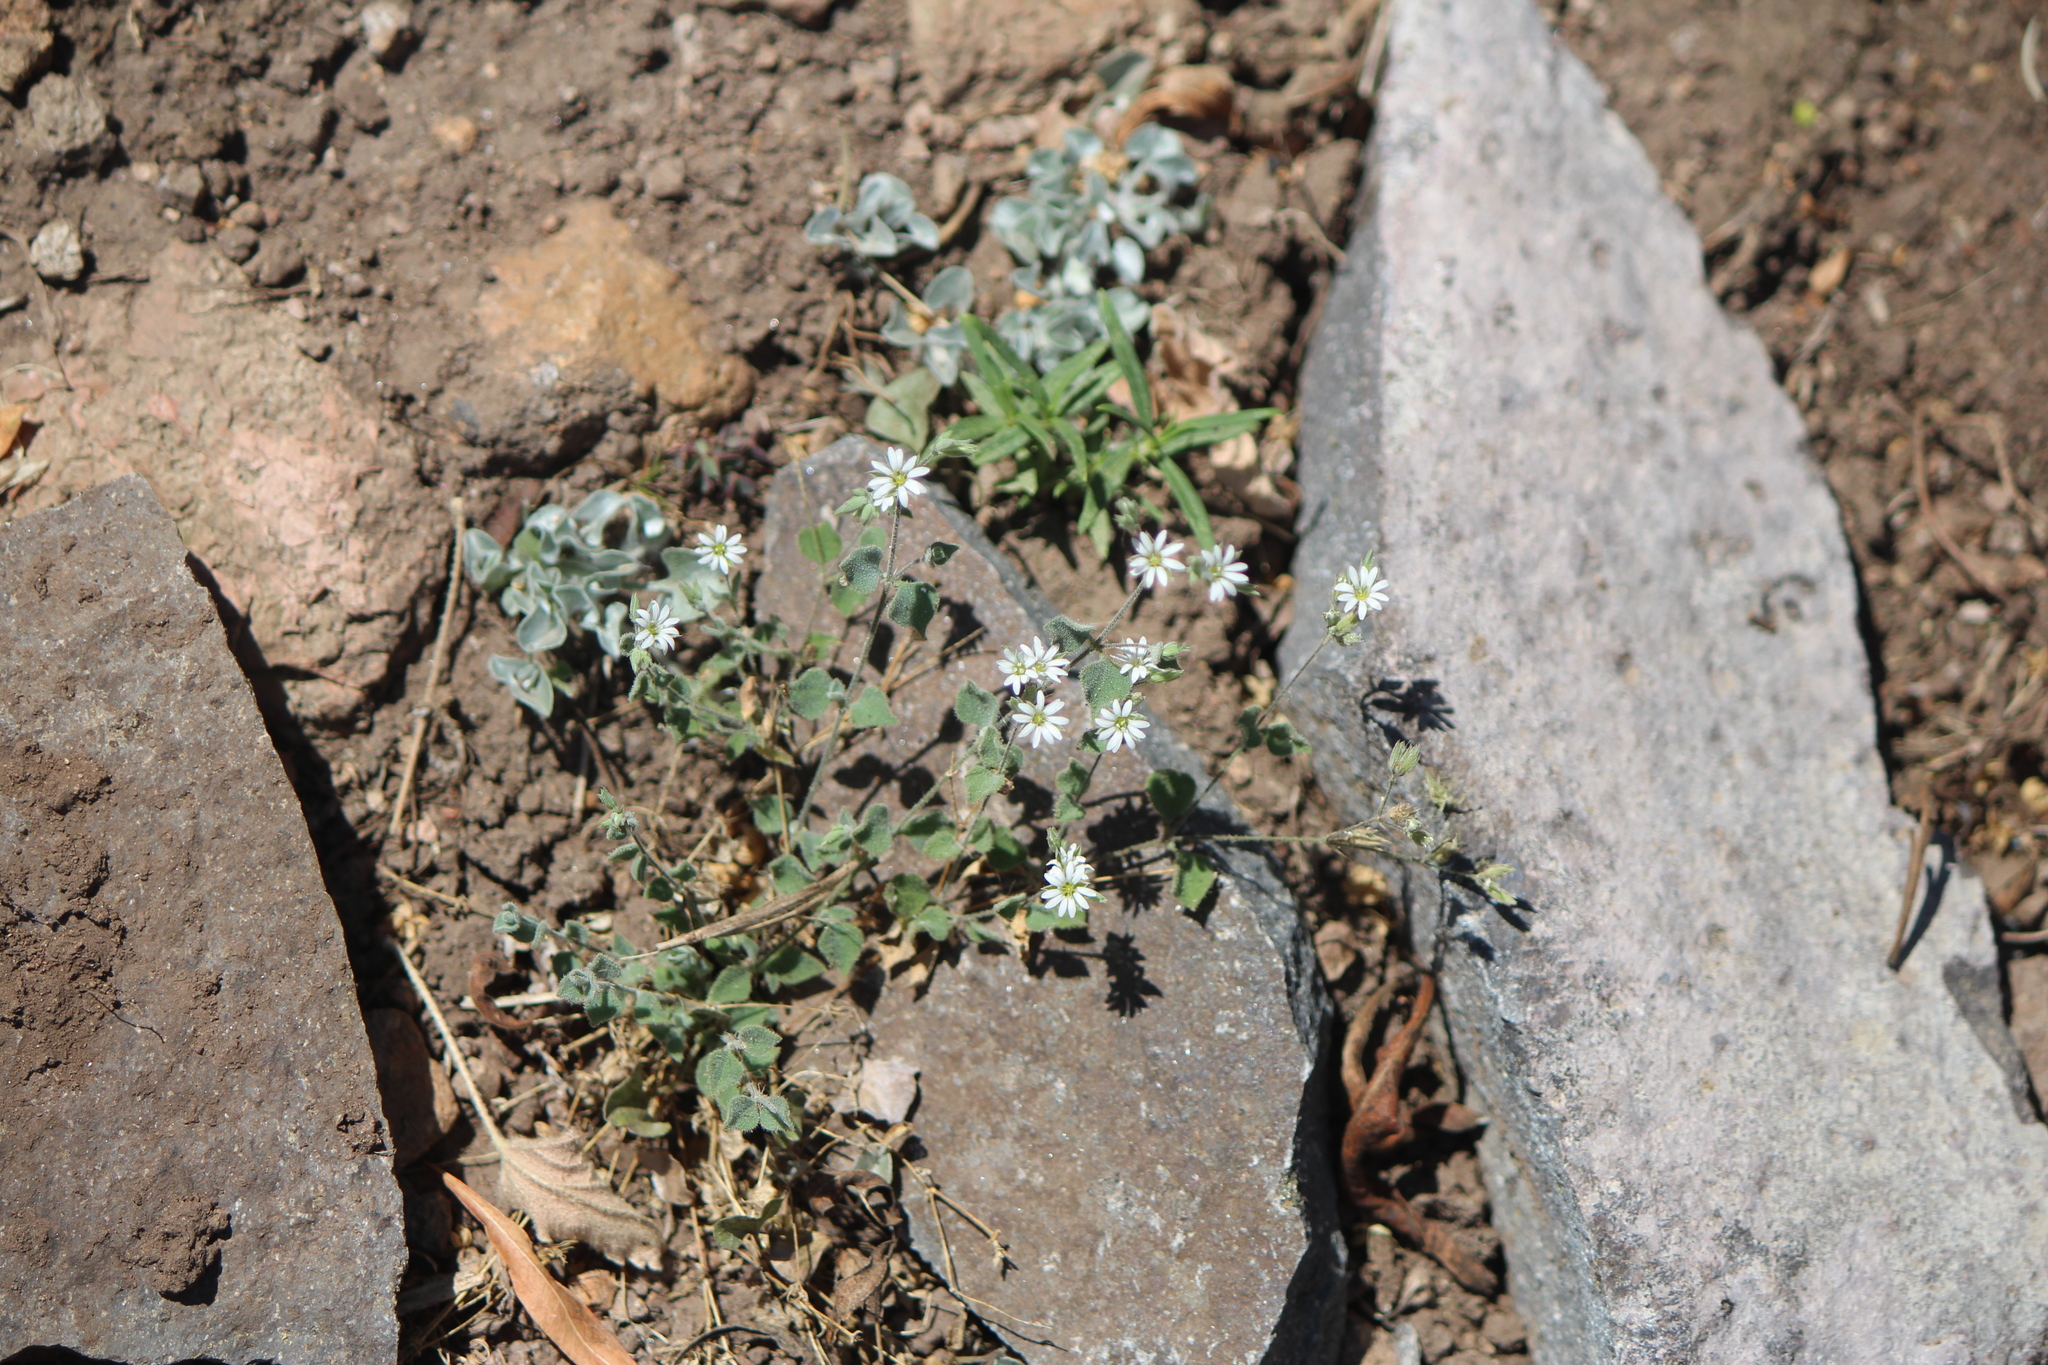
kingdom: Plantae
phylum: Tracheophyta
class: Magnoliopsida
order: Caryophyllales
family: Caryophyllaceae
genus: Stellaria
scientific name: Stellaria cuspidata
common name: Mexican chickweed
